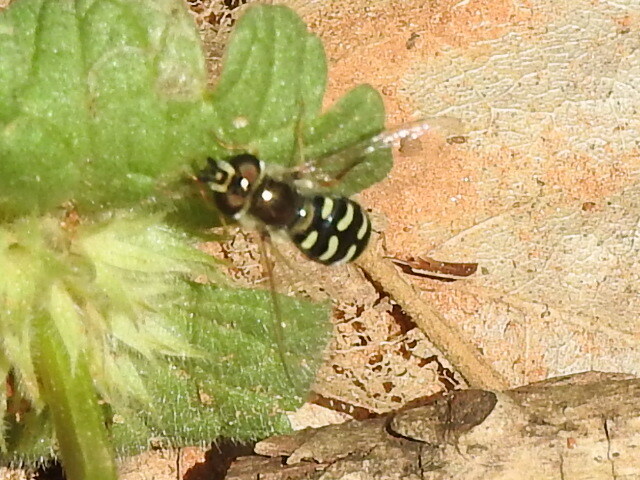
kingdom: Animalia
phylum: Arthropoda
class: Insecta
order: Diptera
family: Syrphidae
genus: Eupeodes
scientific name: Eupeodes volucris
